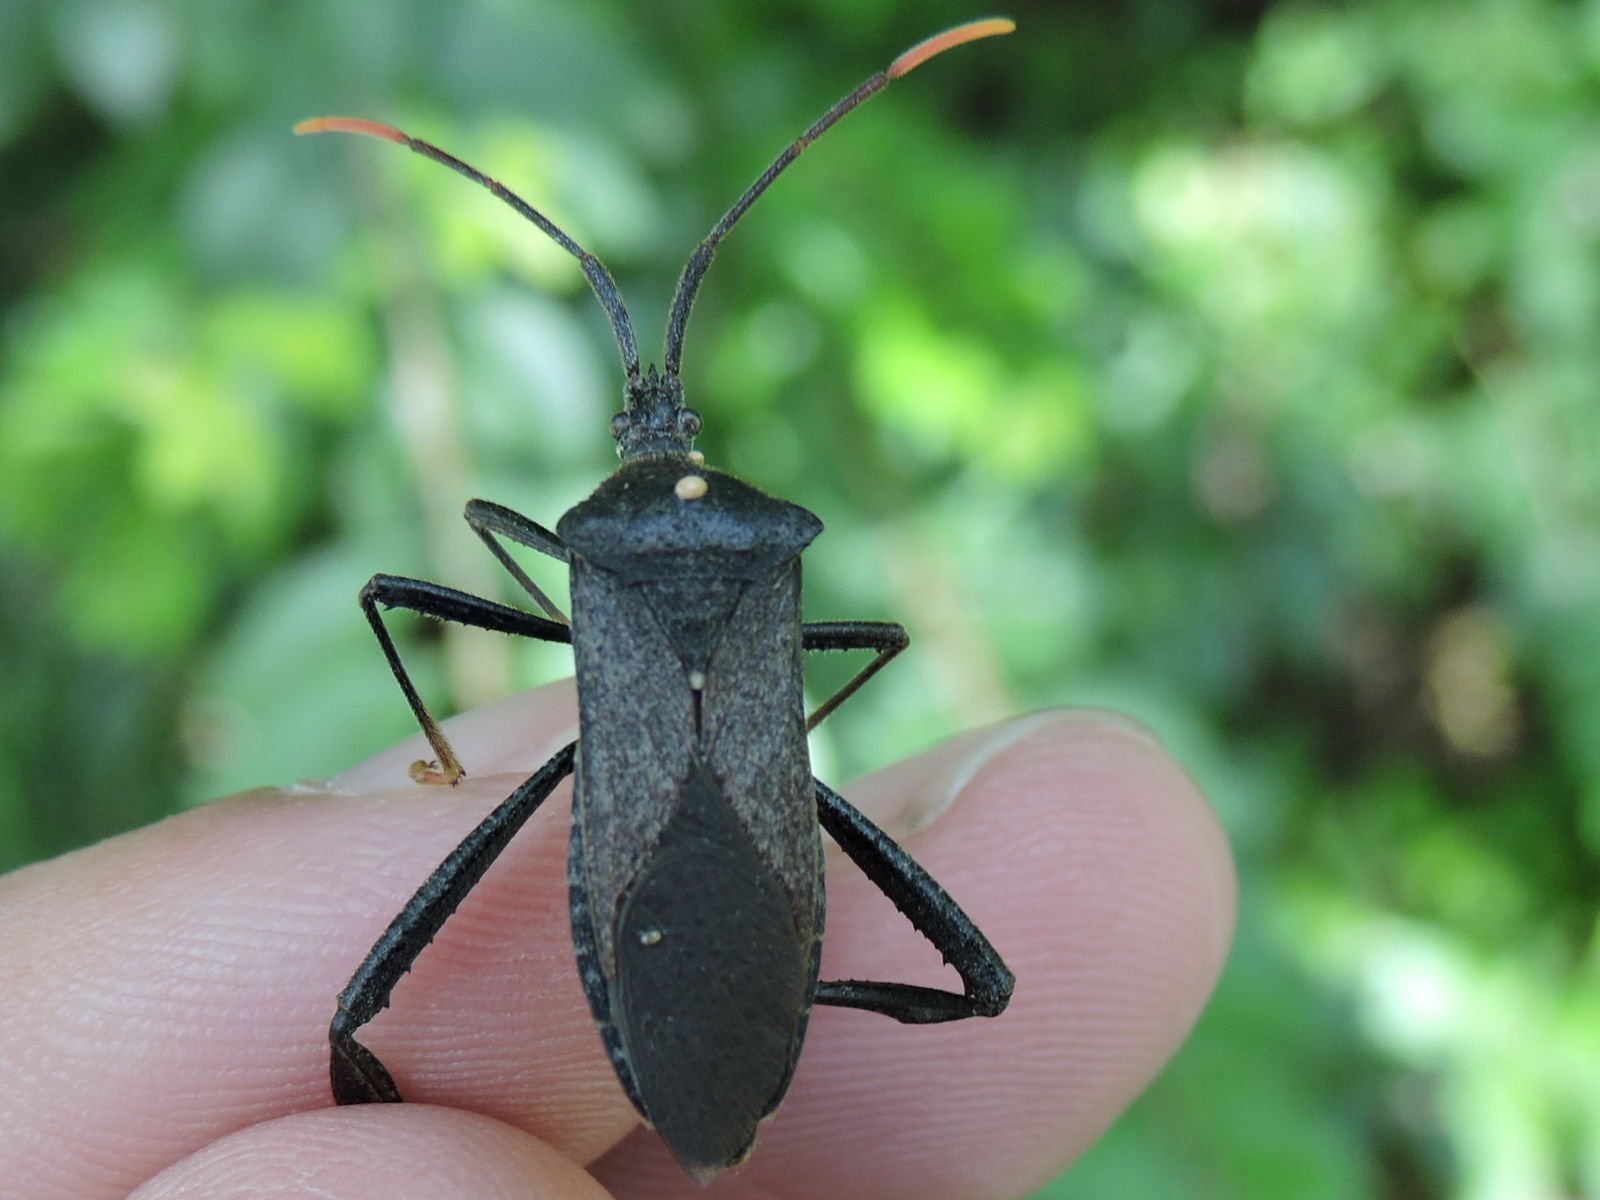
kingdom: Animalia
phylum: Arthropoda
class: Insecta
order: Hemiptera
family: Coreidae
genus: Acanthocephala
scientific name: Acanthocephala terminalis
